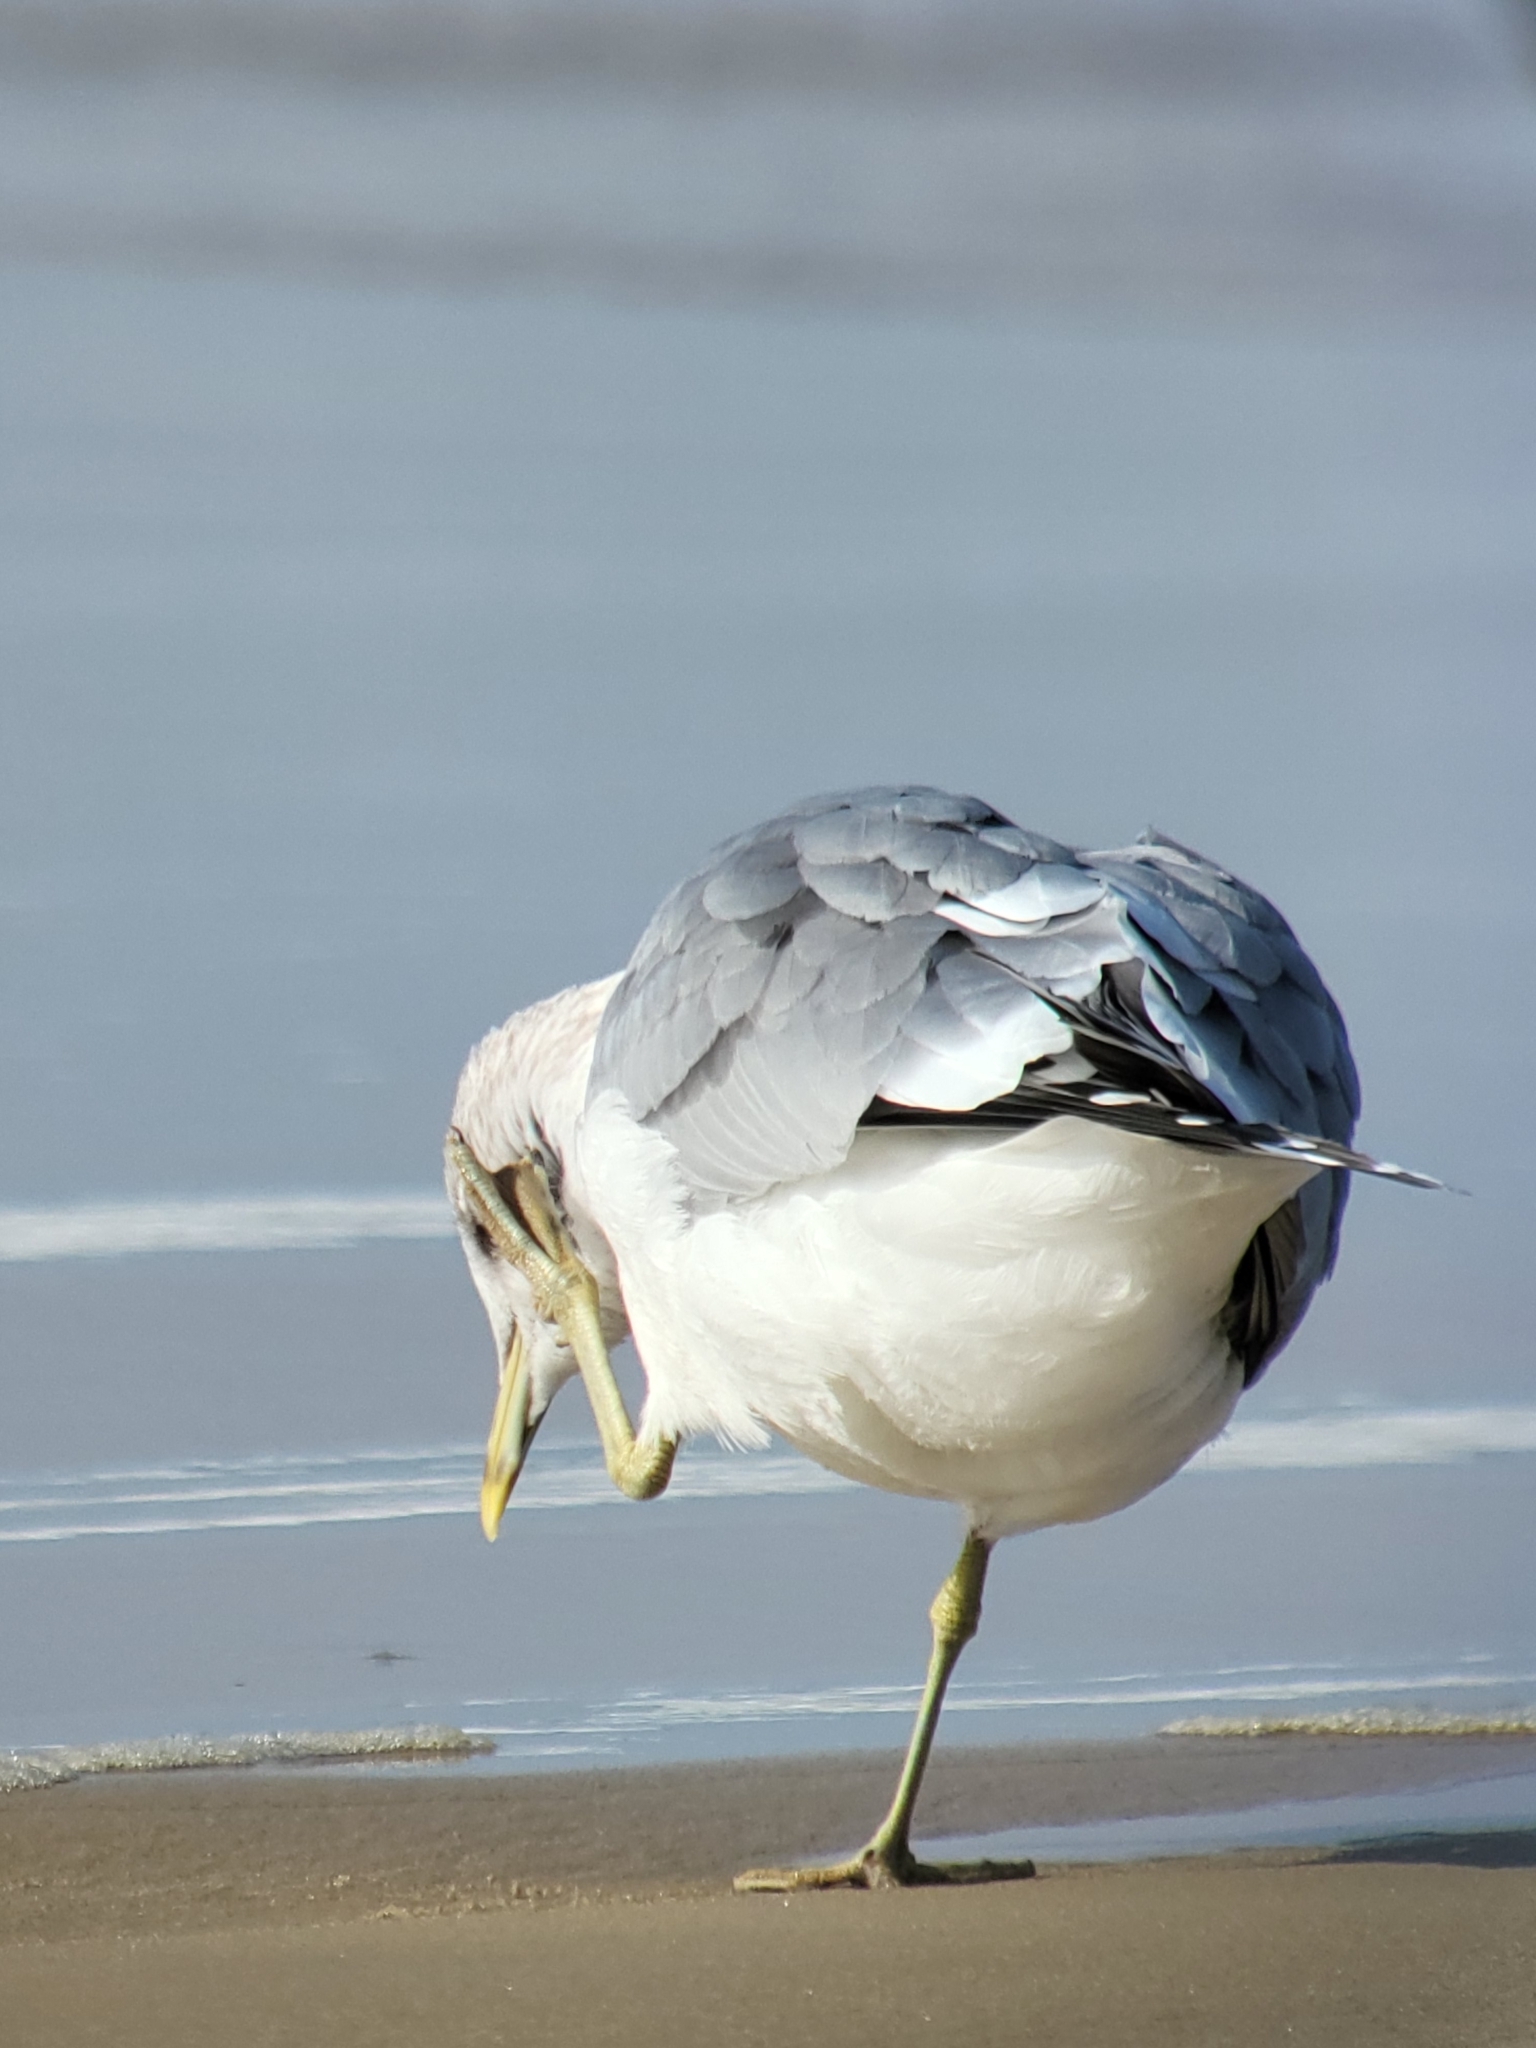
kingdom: Animalia
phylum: Chordata
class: Aves
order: Charadriiformes
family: Laridae
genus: Larus
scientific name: Larus brachyrhynchus
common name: Short-billed gull
